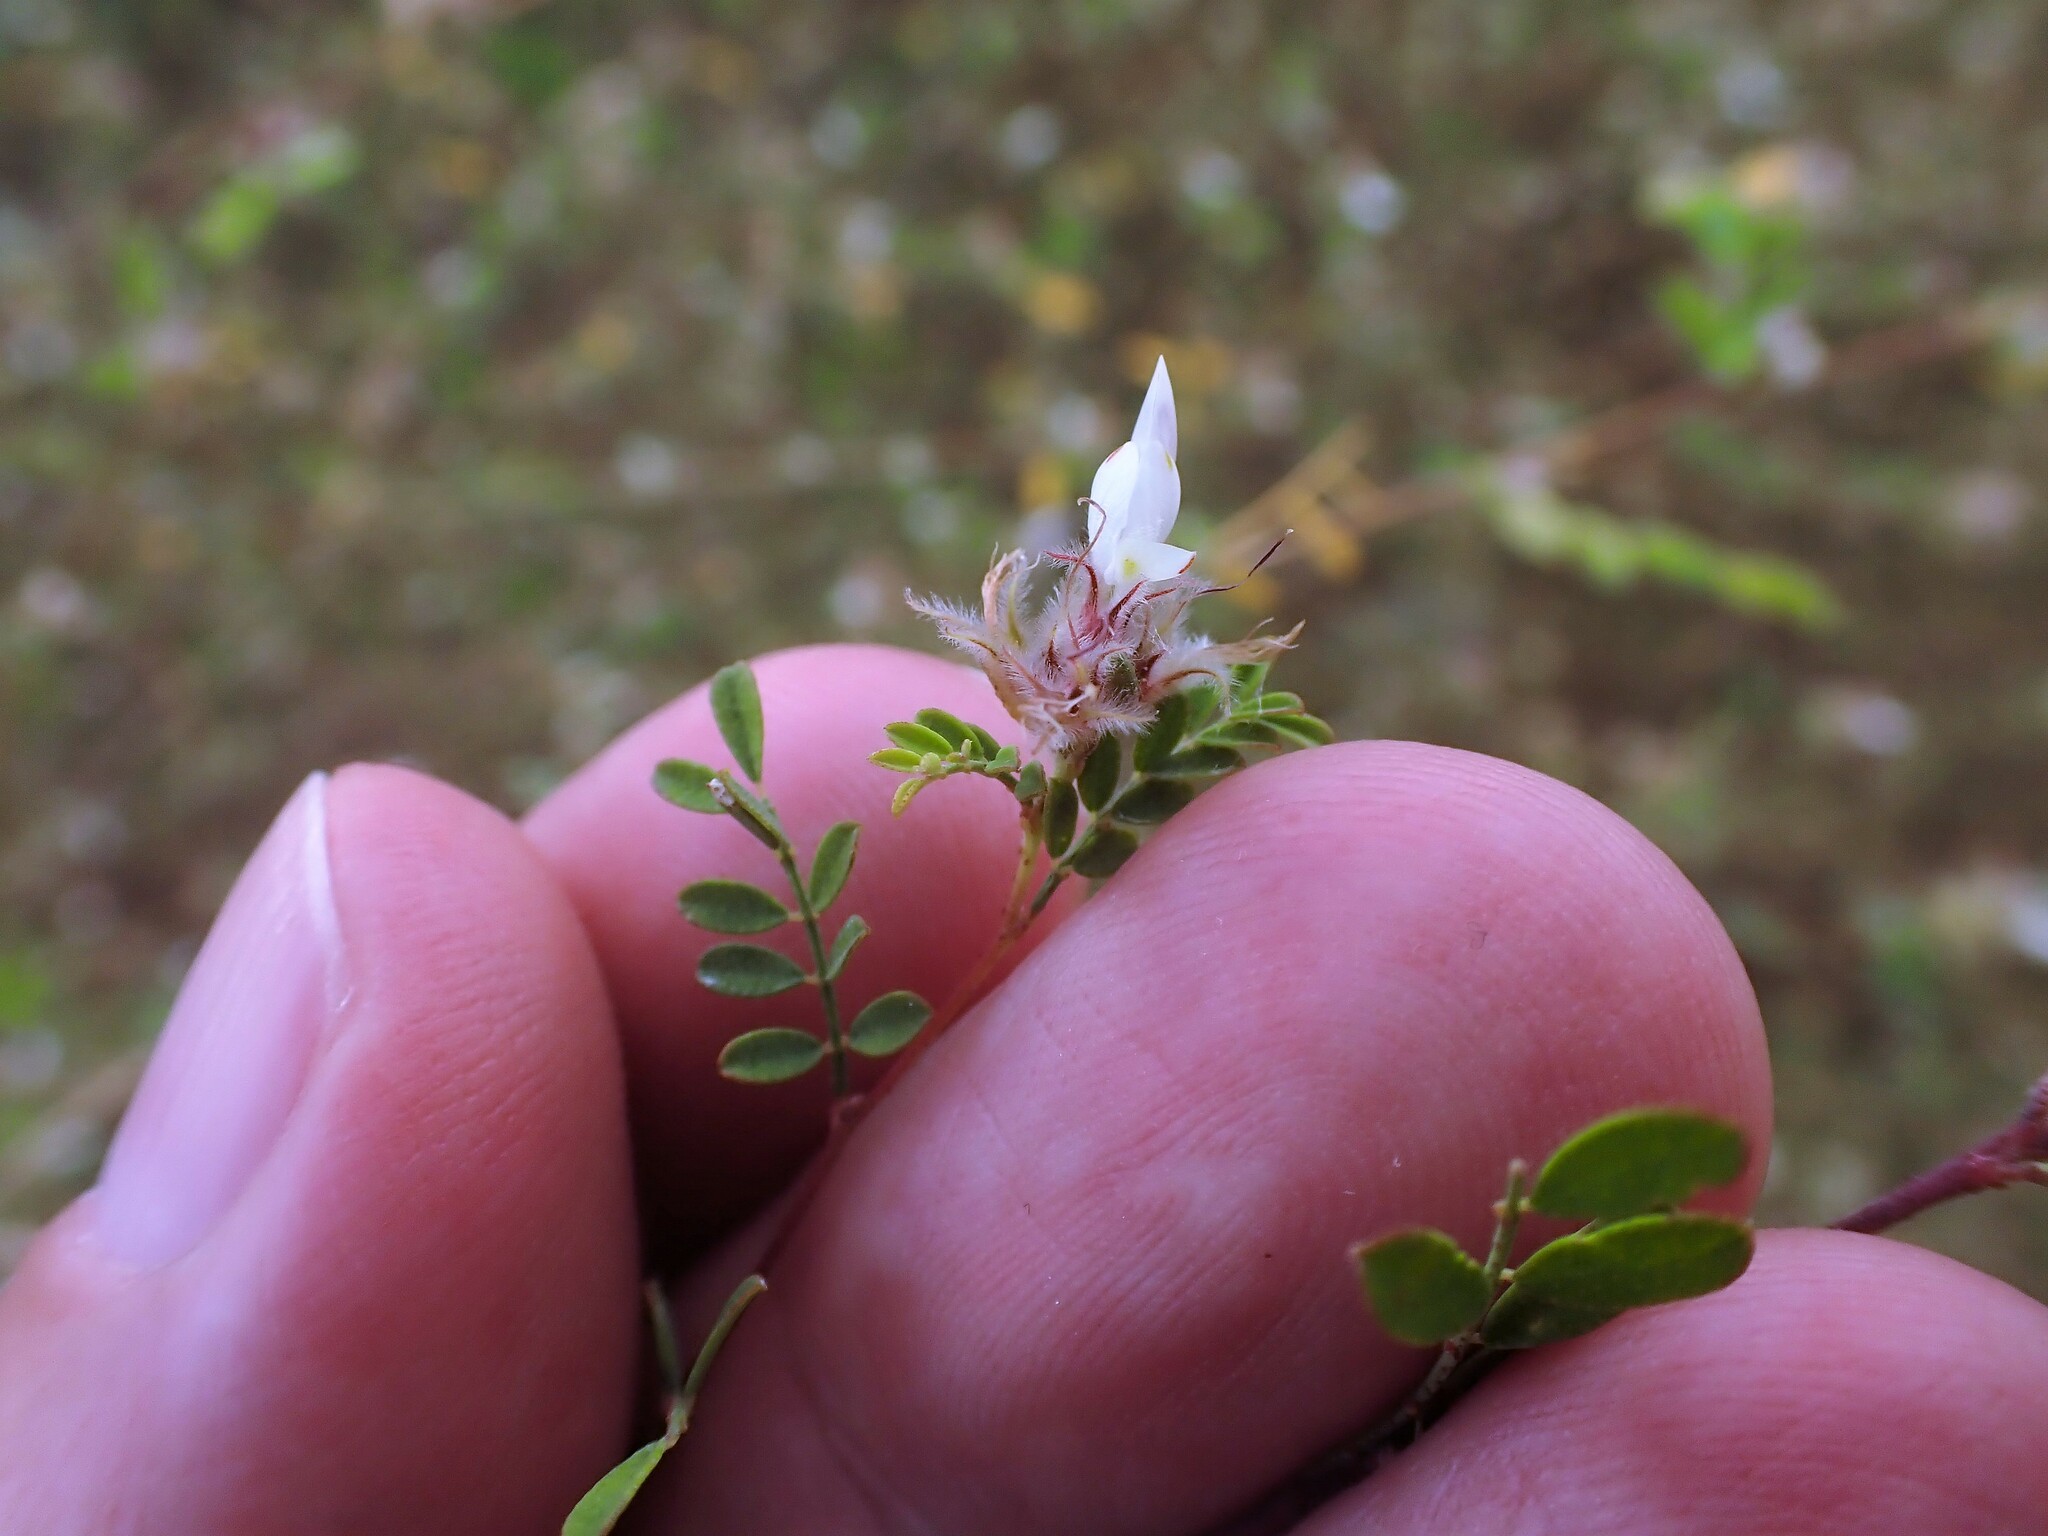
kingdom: Plantae
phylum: Tracheophyta
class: Magnoliopsida
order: Fabales
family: Fabaceae
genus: Dalea
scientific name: Dalea carthagenensis
